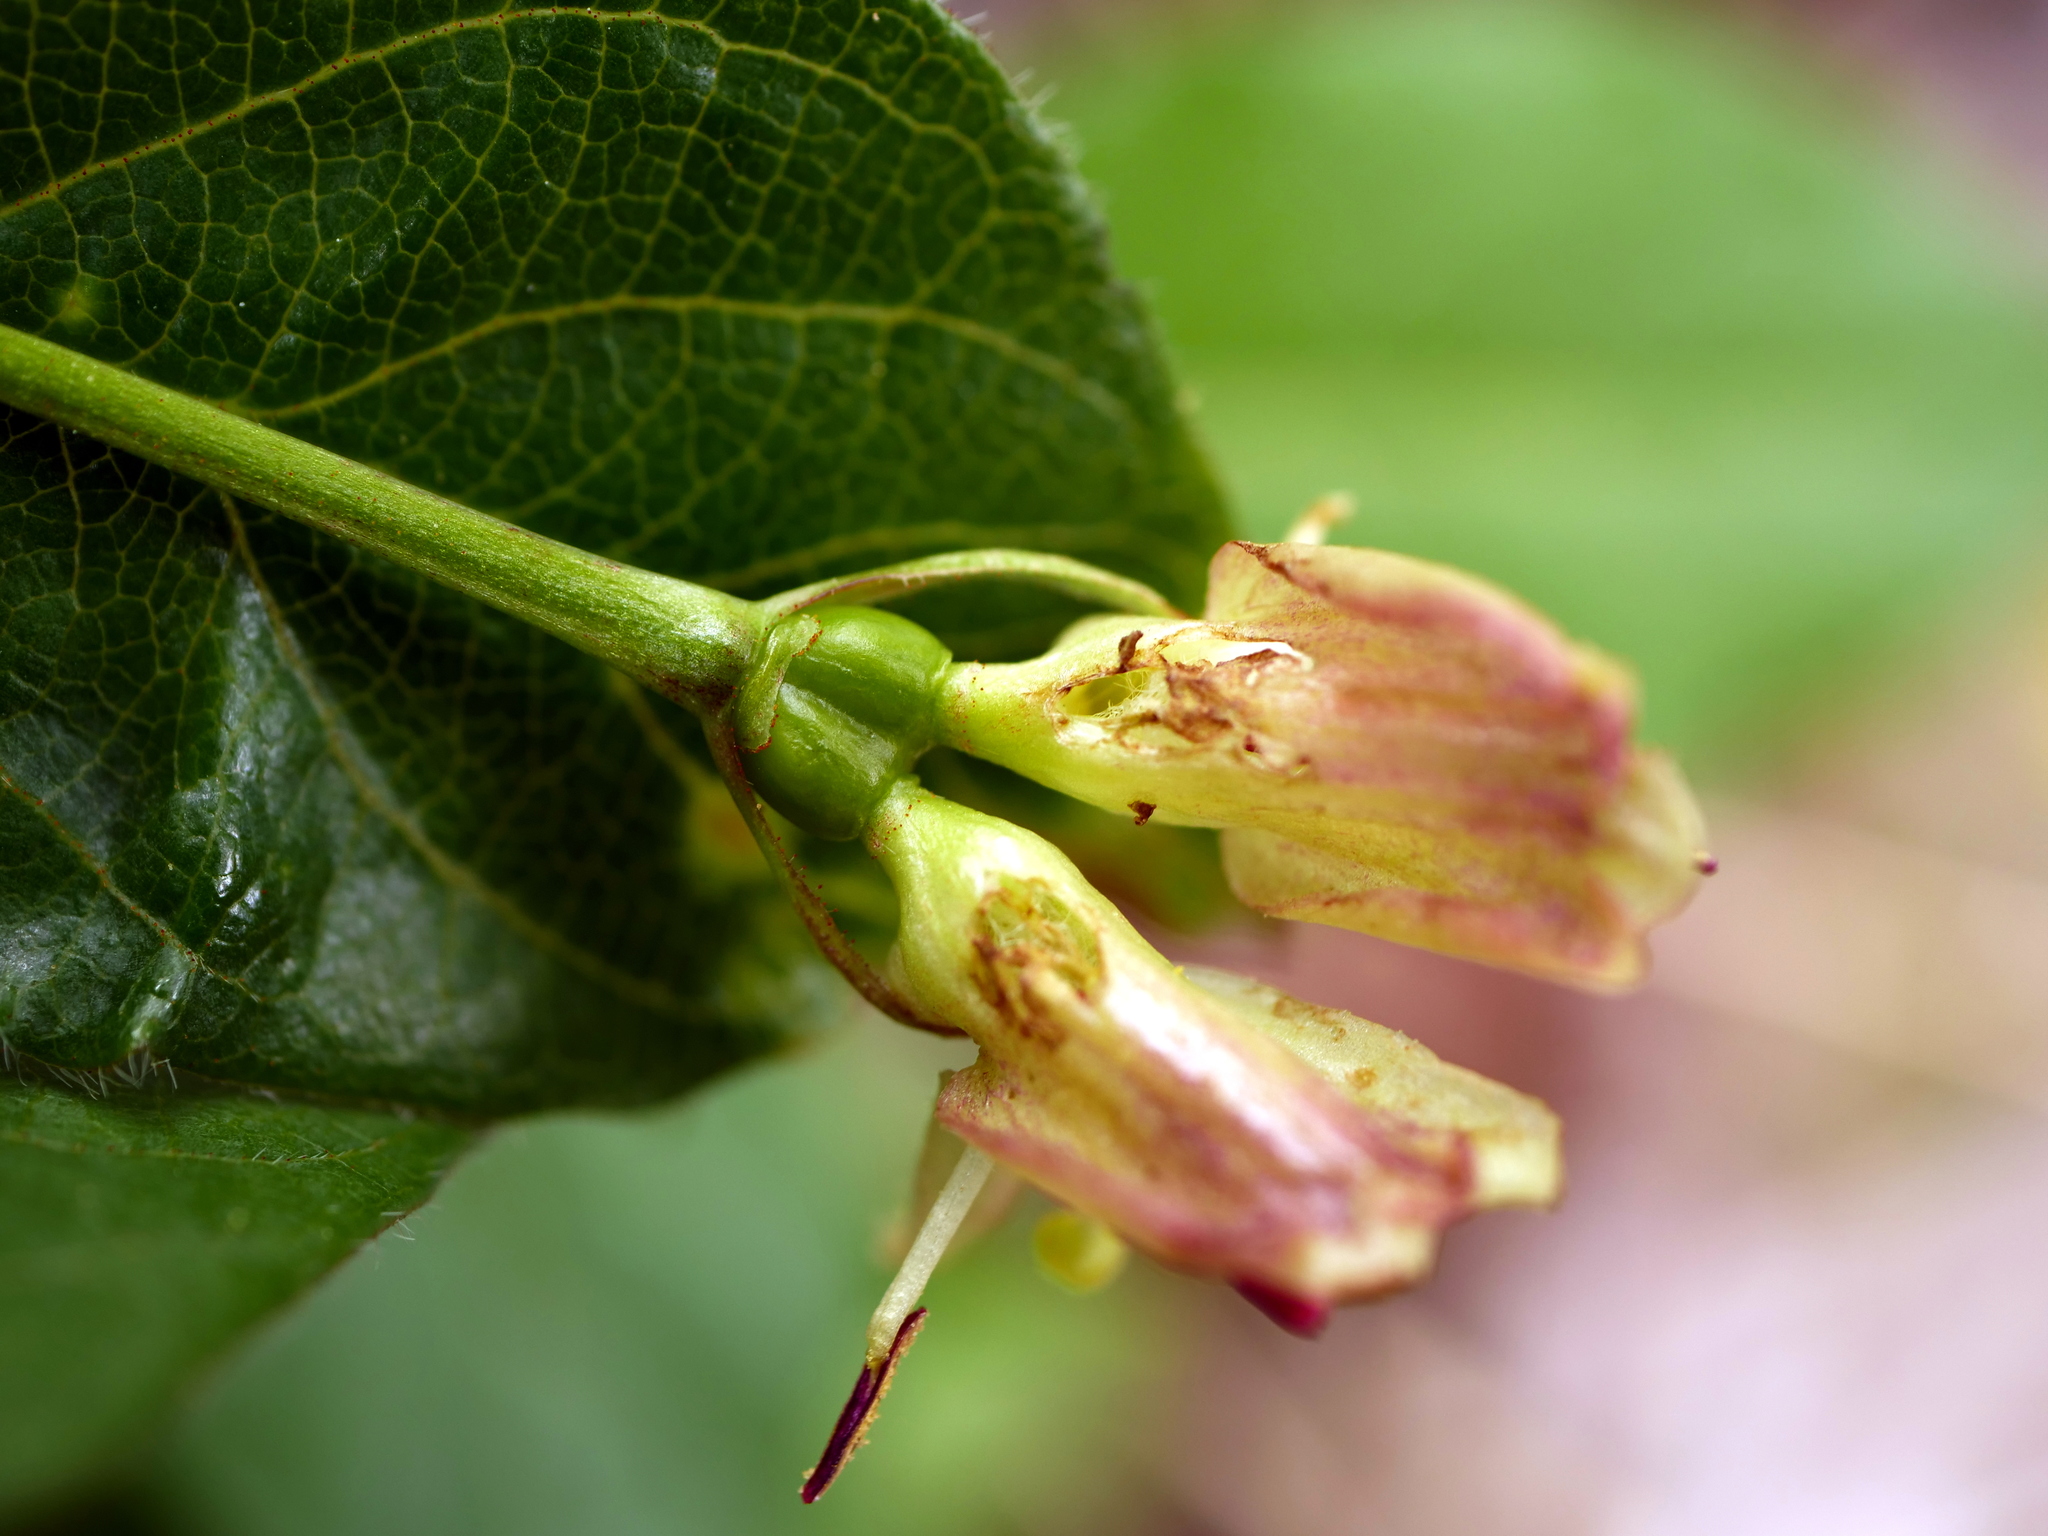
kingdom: Plantae
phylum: Tracheophyta
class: Magnoliopsida
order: Dipsacales
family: Caprifoliaceae
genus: Lonicera
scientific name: Lonicera alpigena
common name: Alpine honeysuckle
